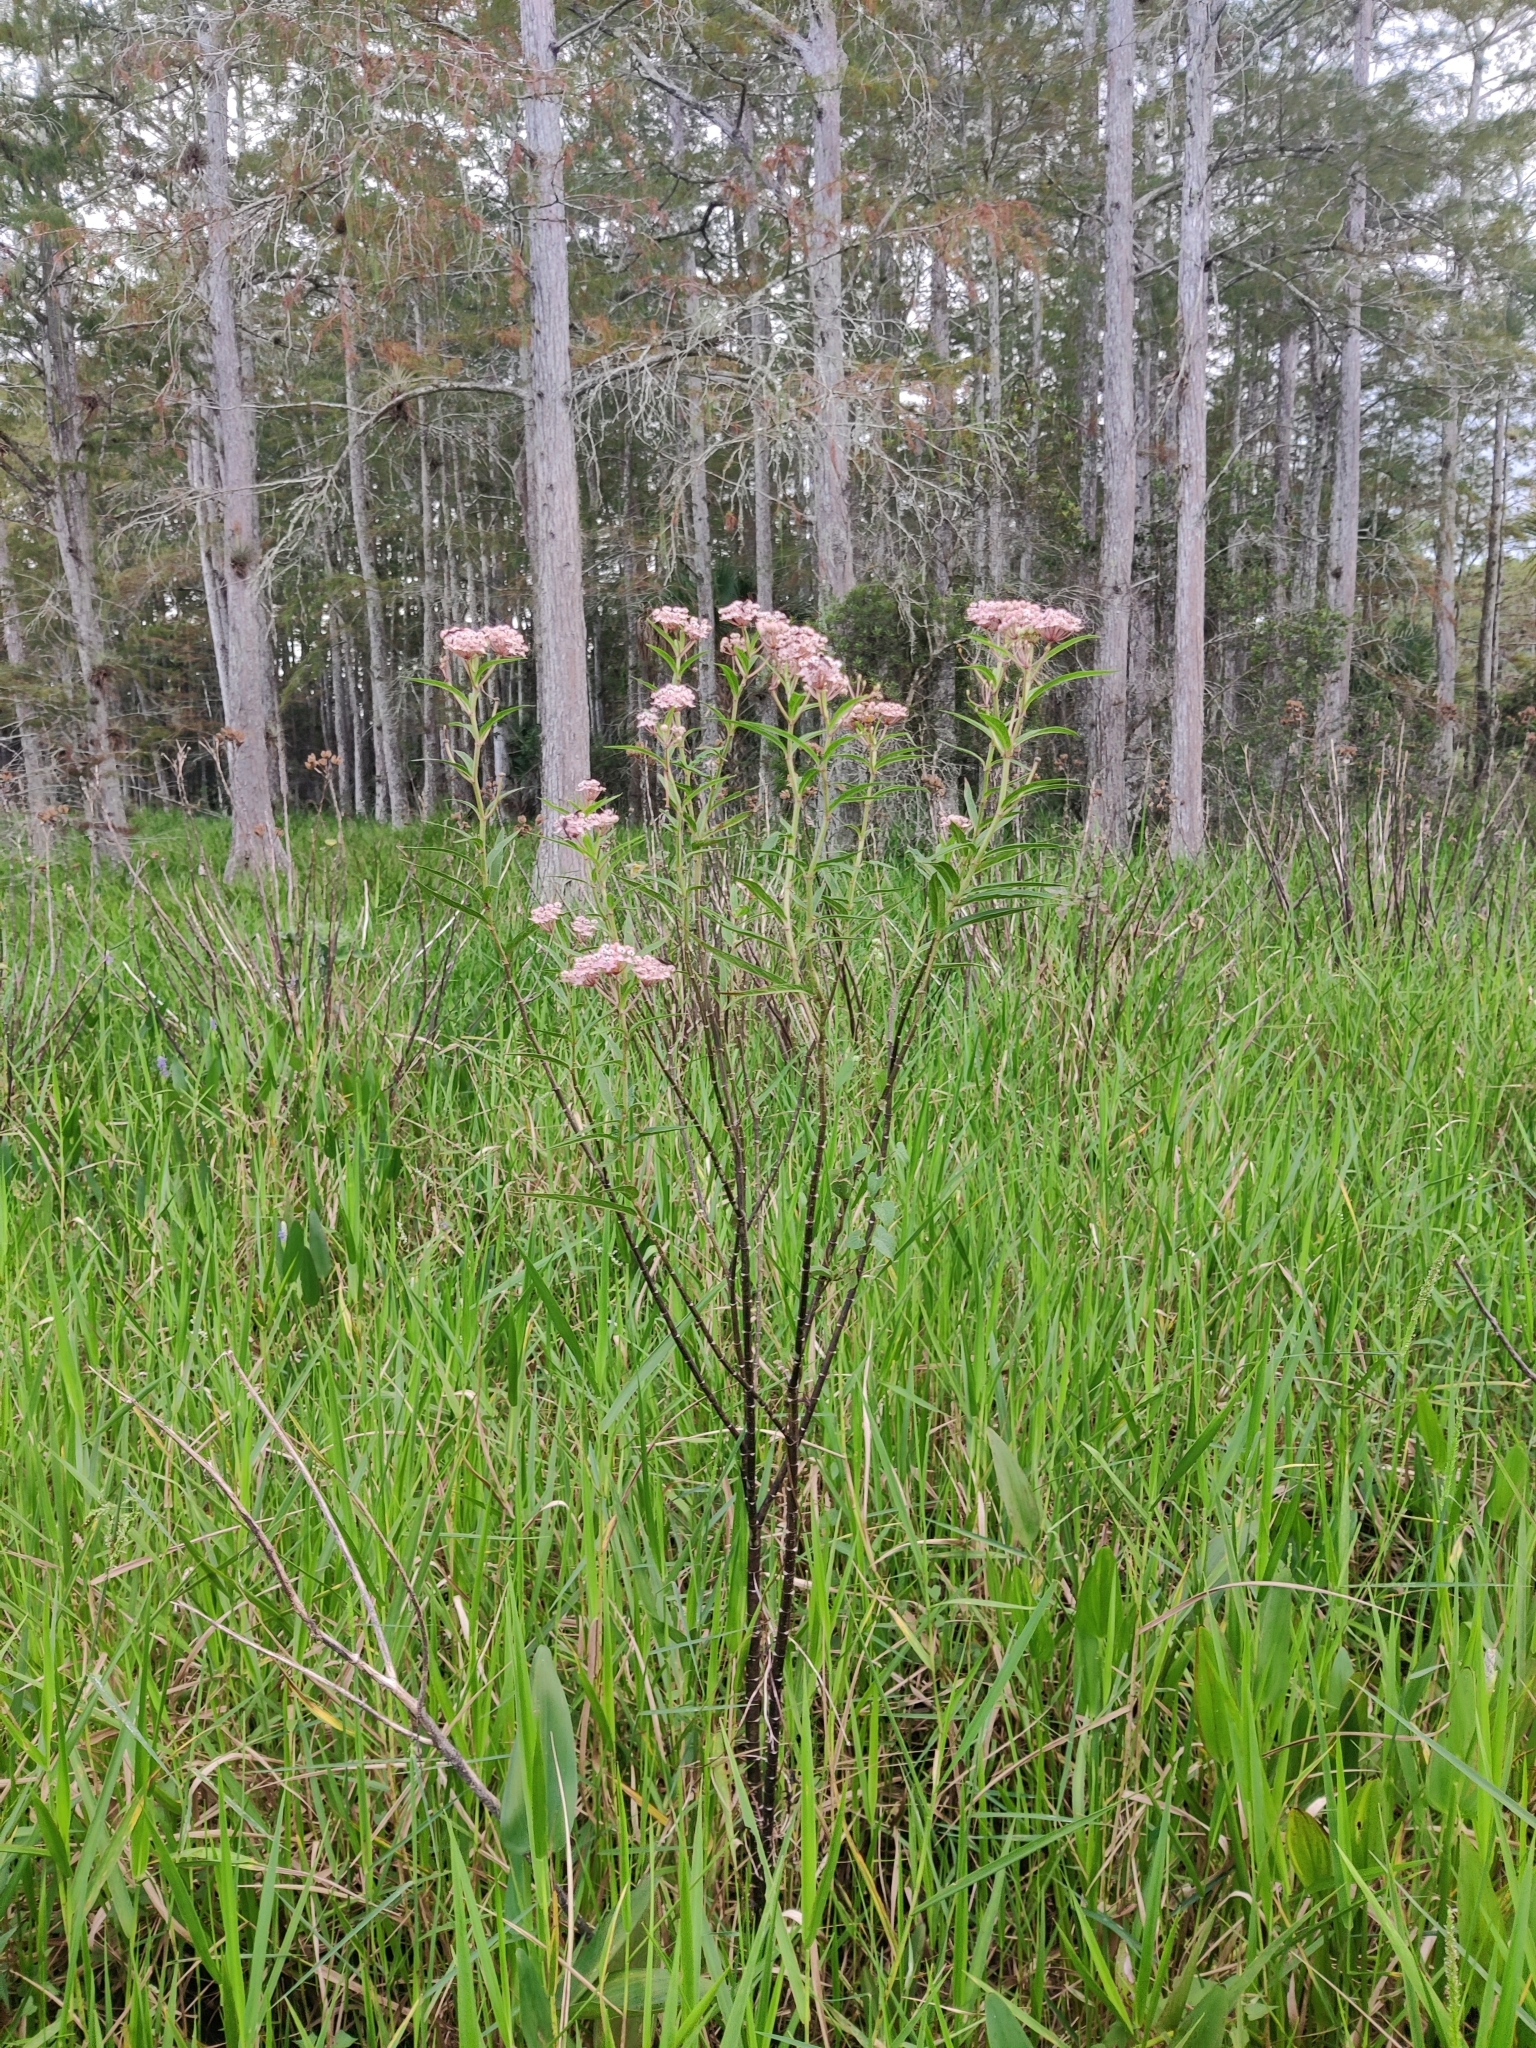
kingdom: Plantae
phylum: Tracheophyta
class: Magnoliopsida
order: Gentianales
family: Apocynaceae
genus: Asclepias
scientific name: Asclepias incarnata
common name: Swamp milkweed
